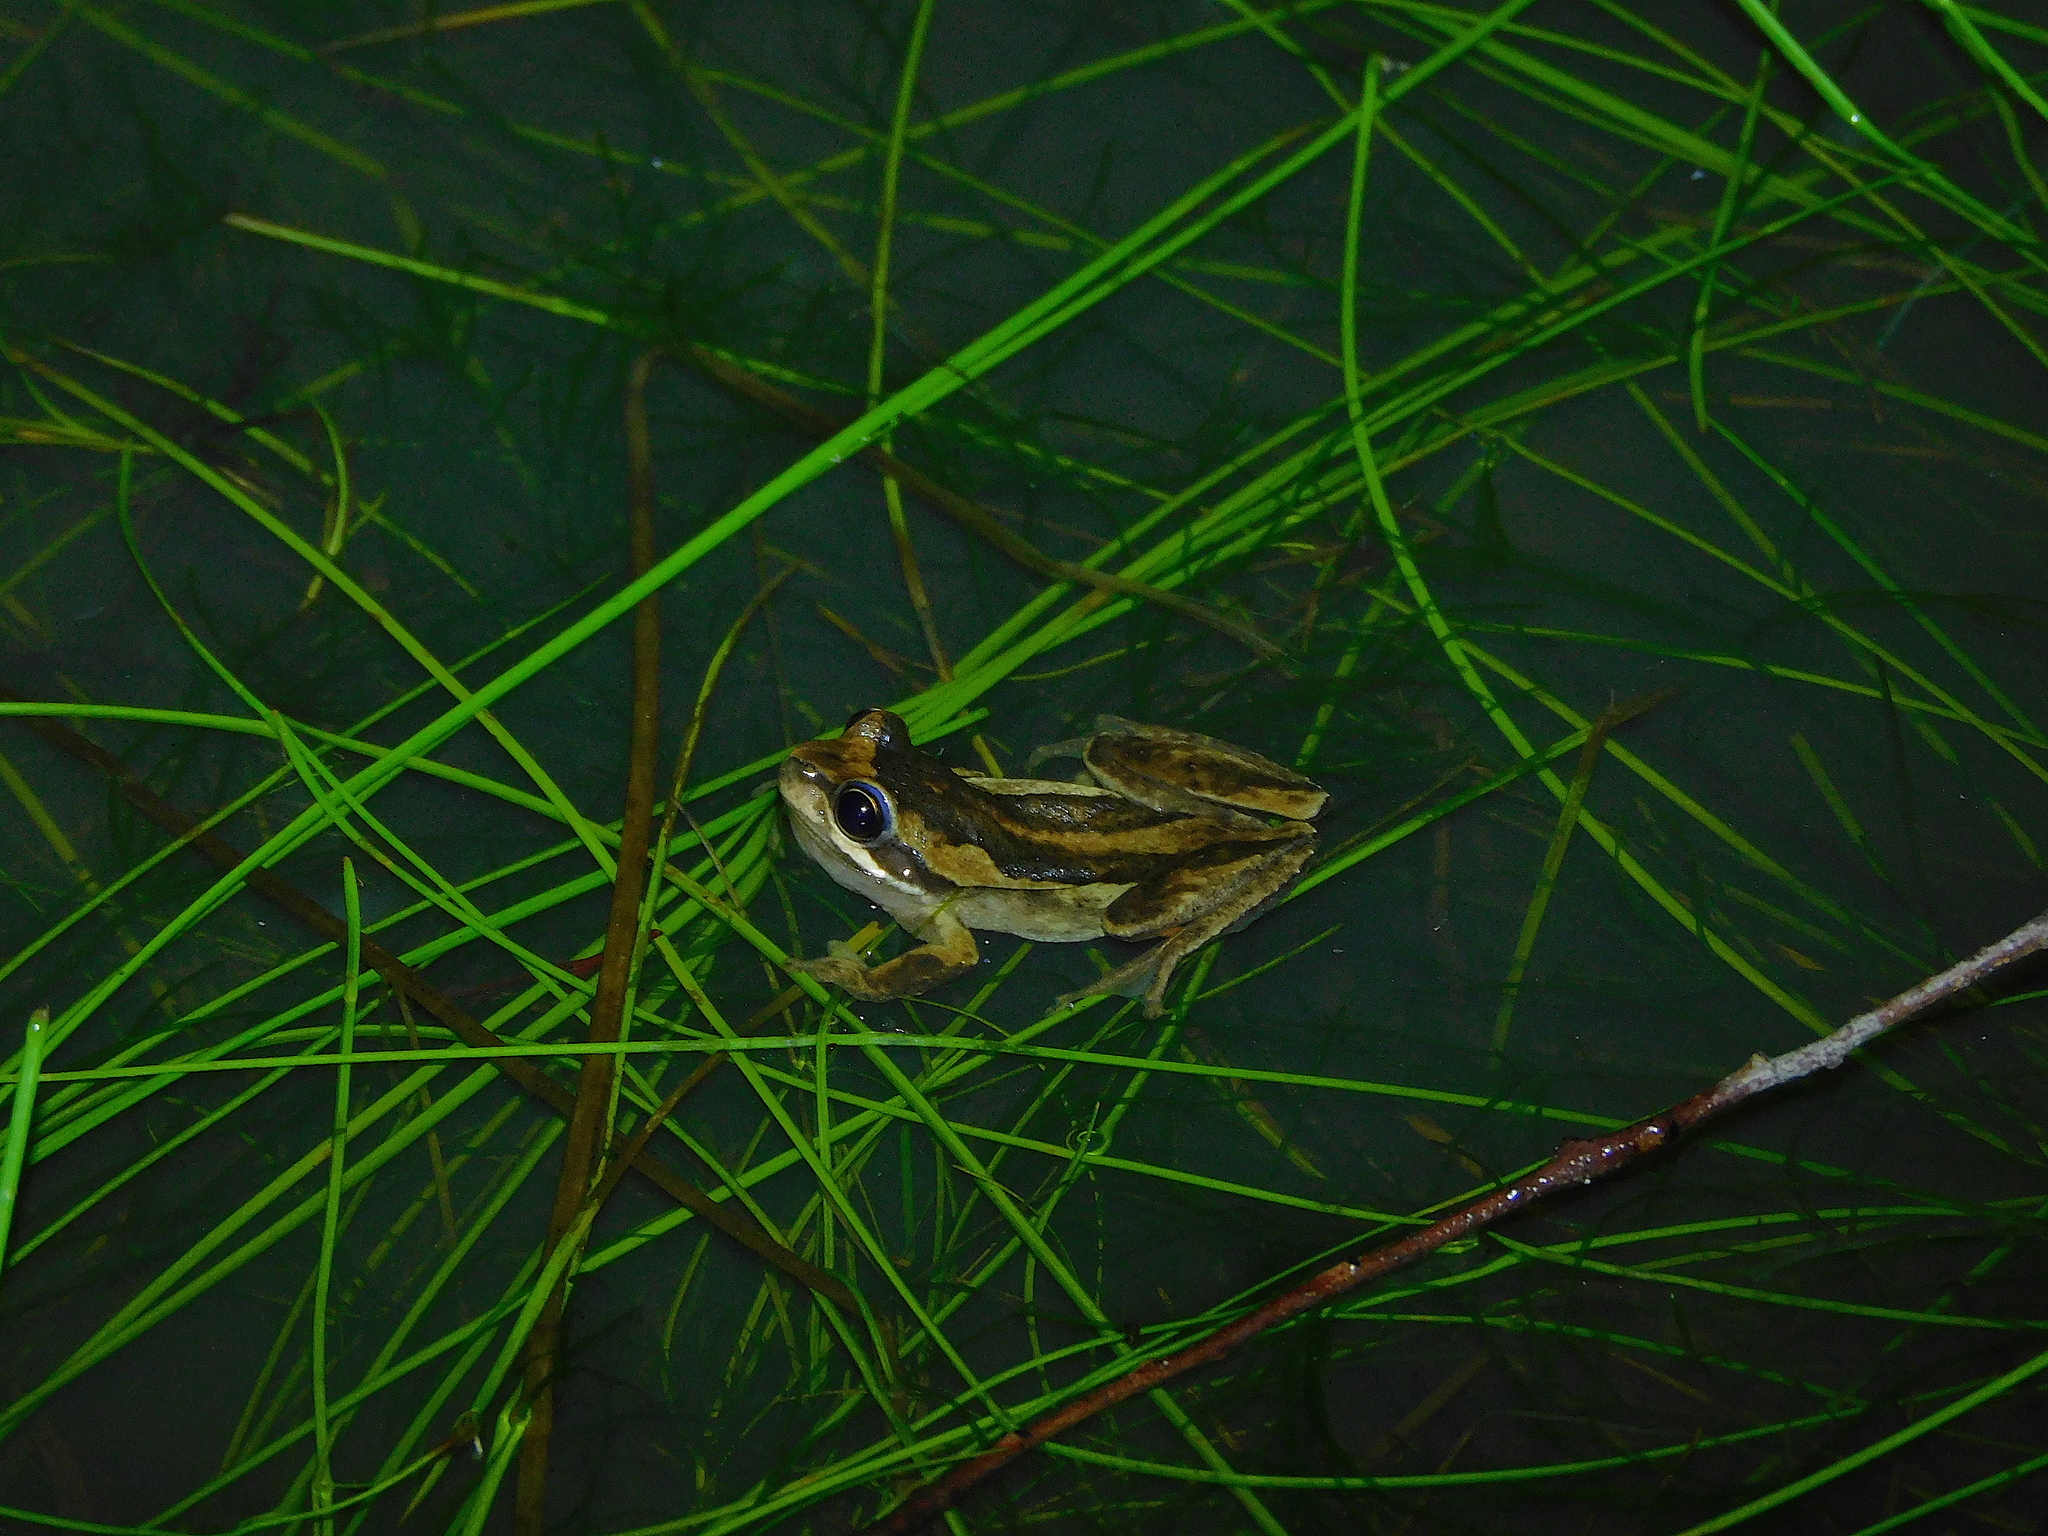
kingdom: Animalia
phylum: Chordata
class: Amphibia
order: Anura
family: Pelodryadidae
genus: Litoria
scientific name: Litoria ewingii
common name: Southern brown tree frog
